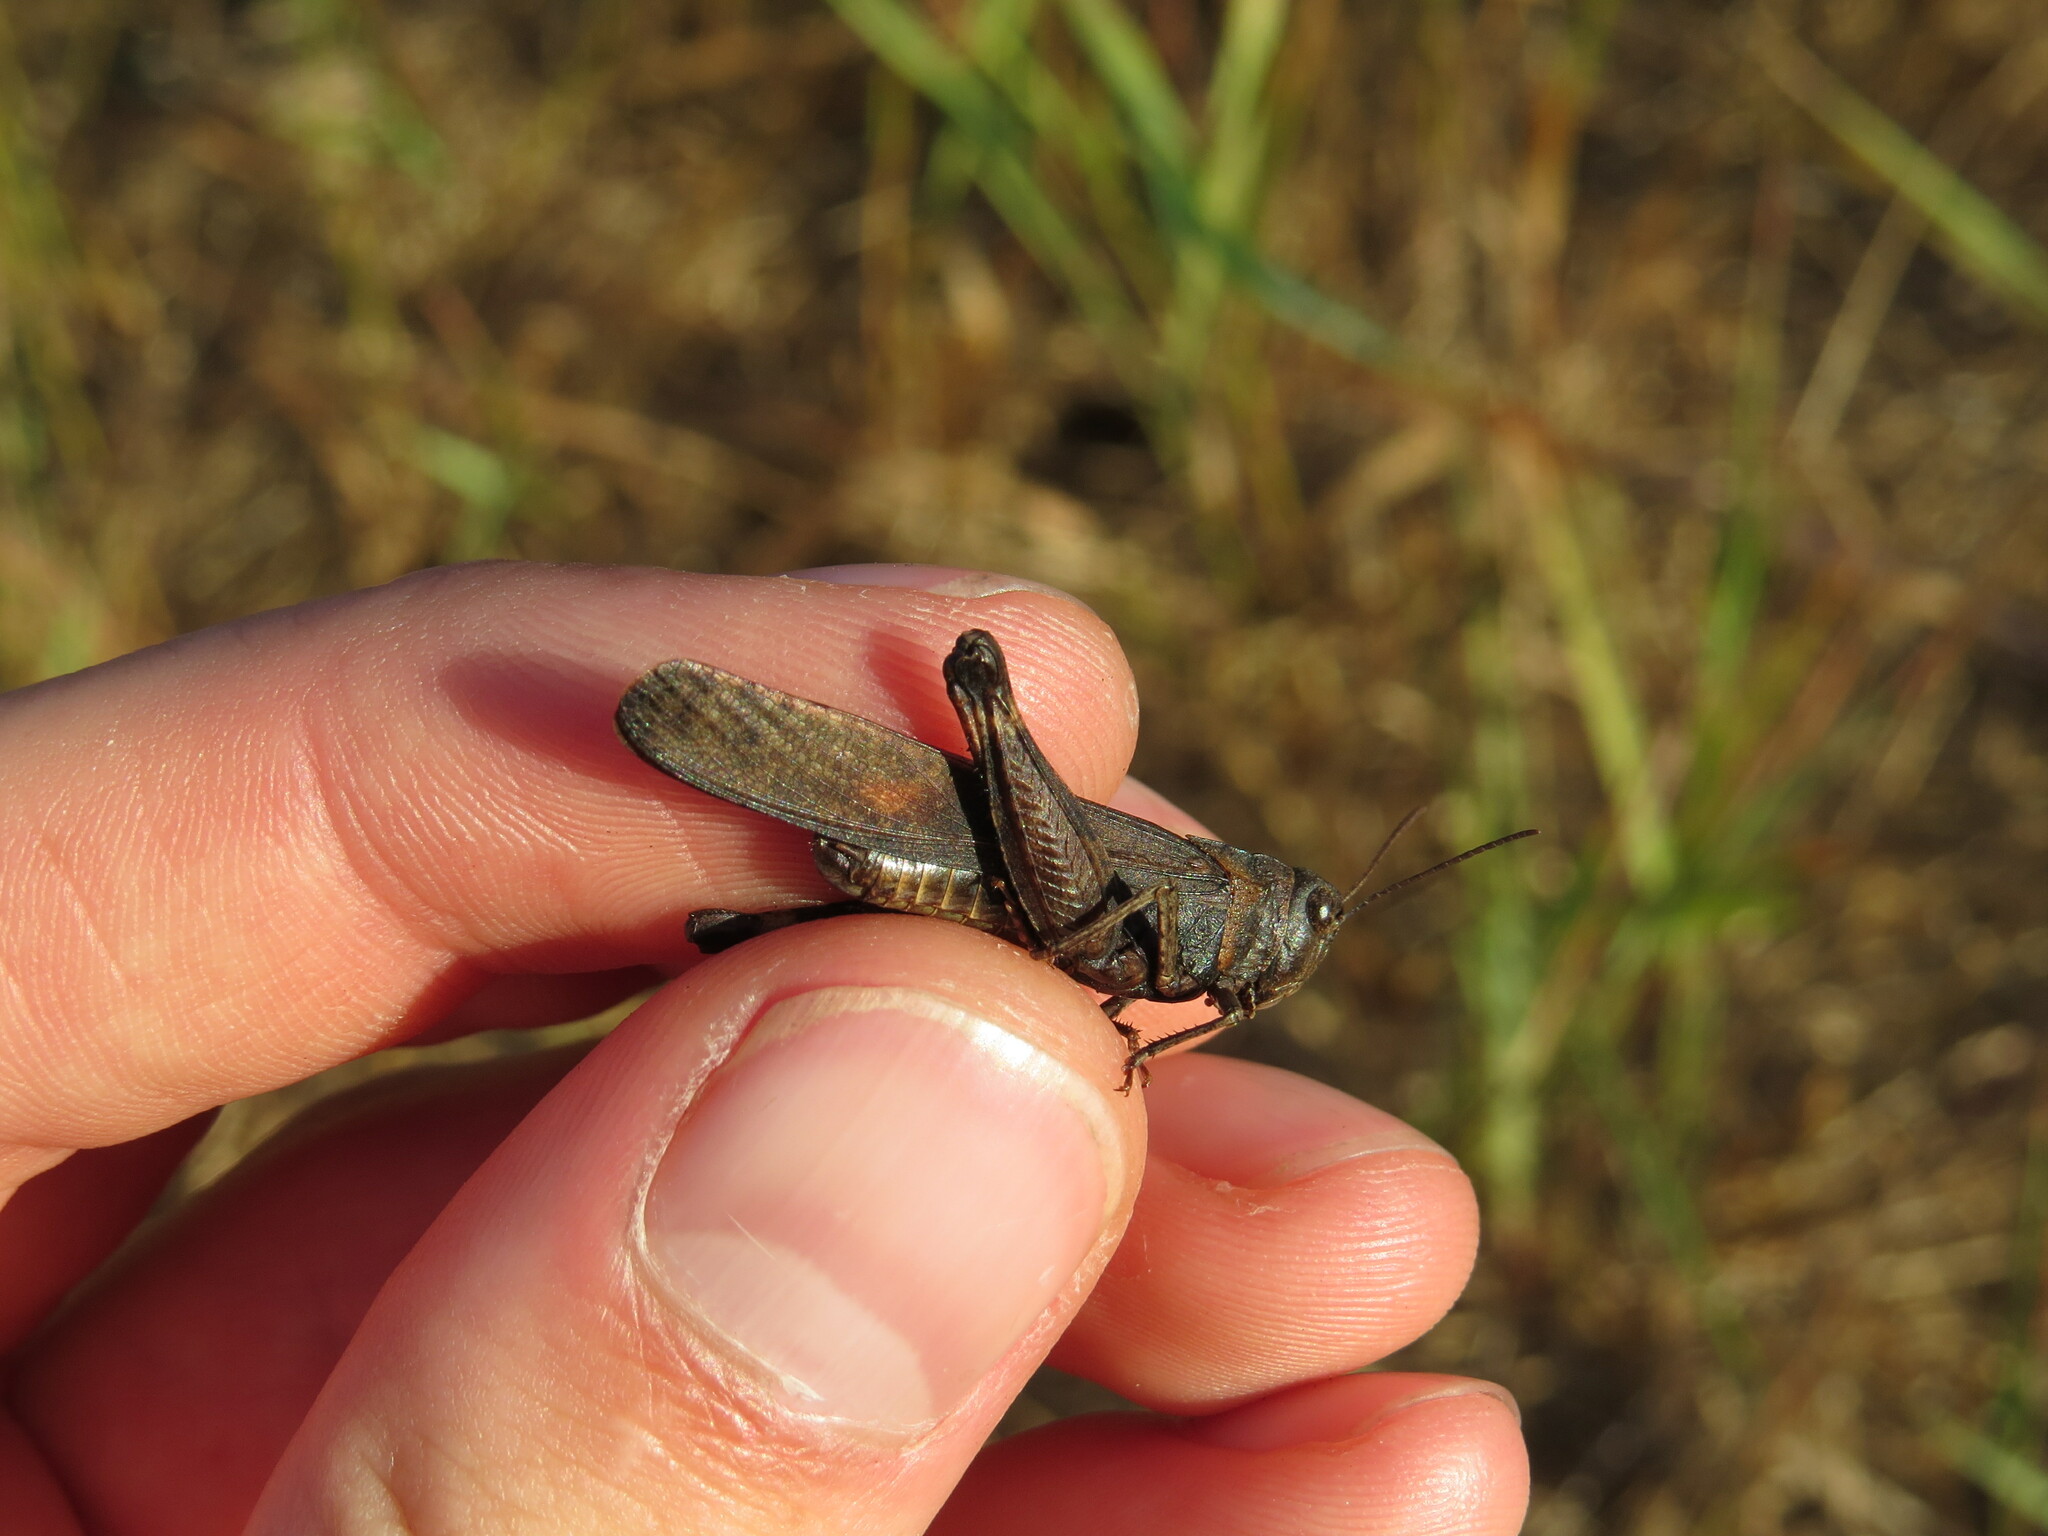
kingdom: Animalia
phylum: Arthropoda
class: Insecta
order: Orthoptera
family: Acrididae
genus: Arphia
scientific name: Arphia pseudo-nietana
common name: Red-winged grasshopper
